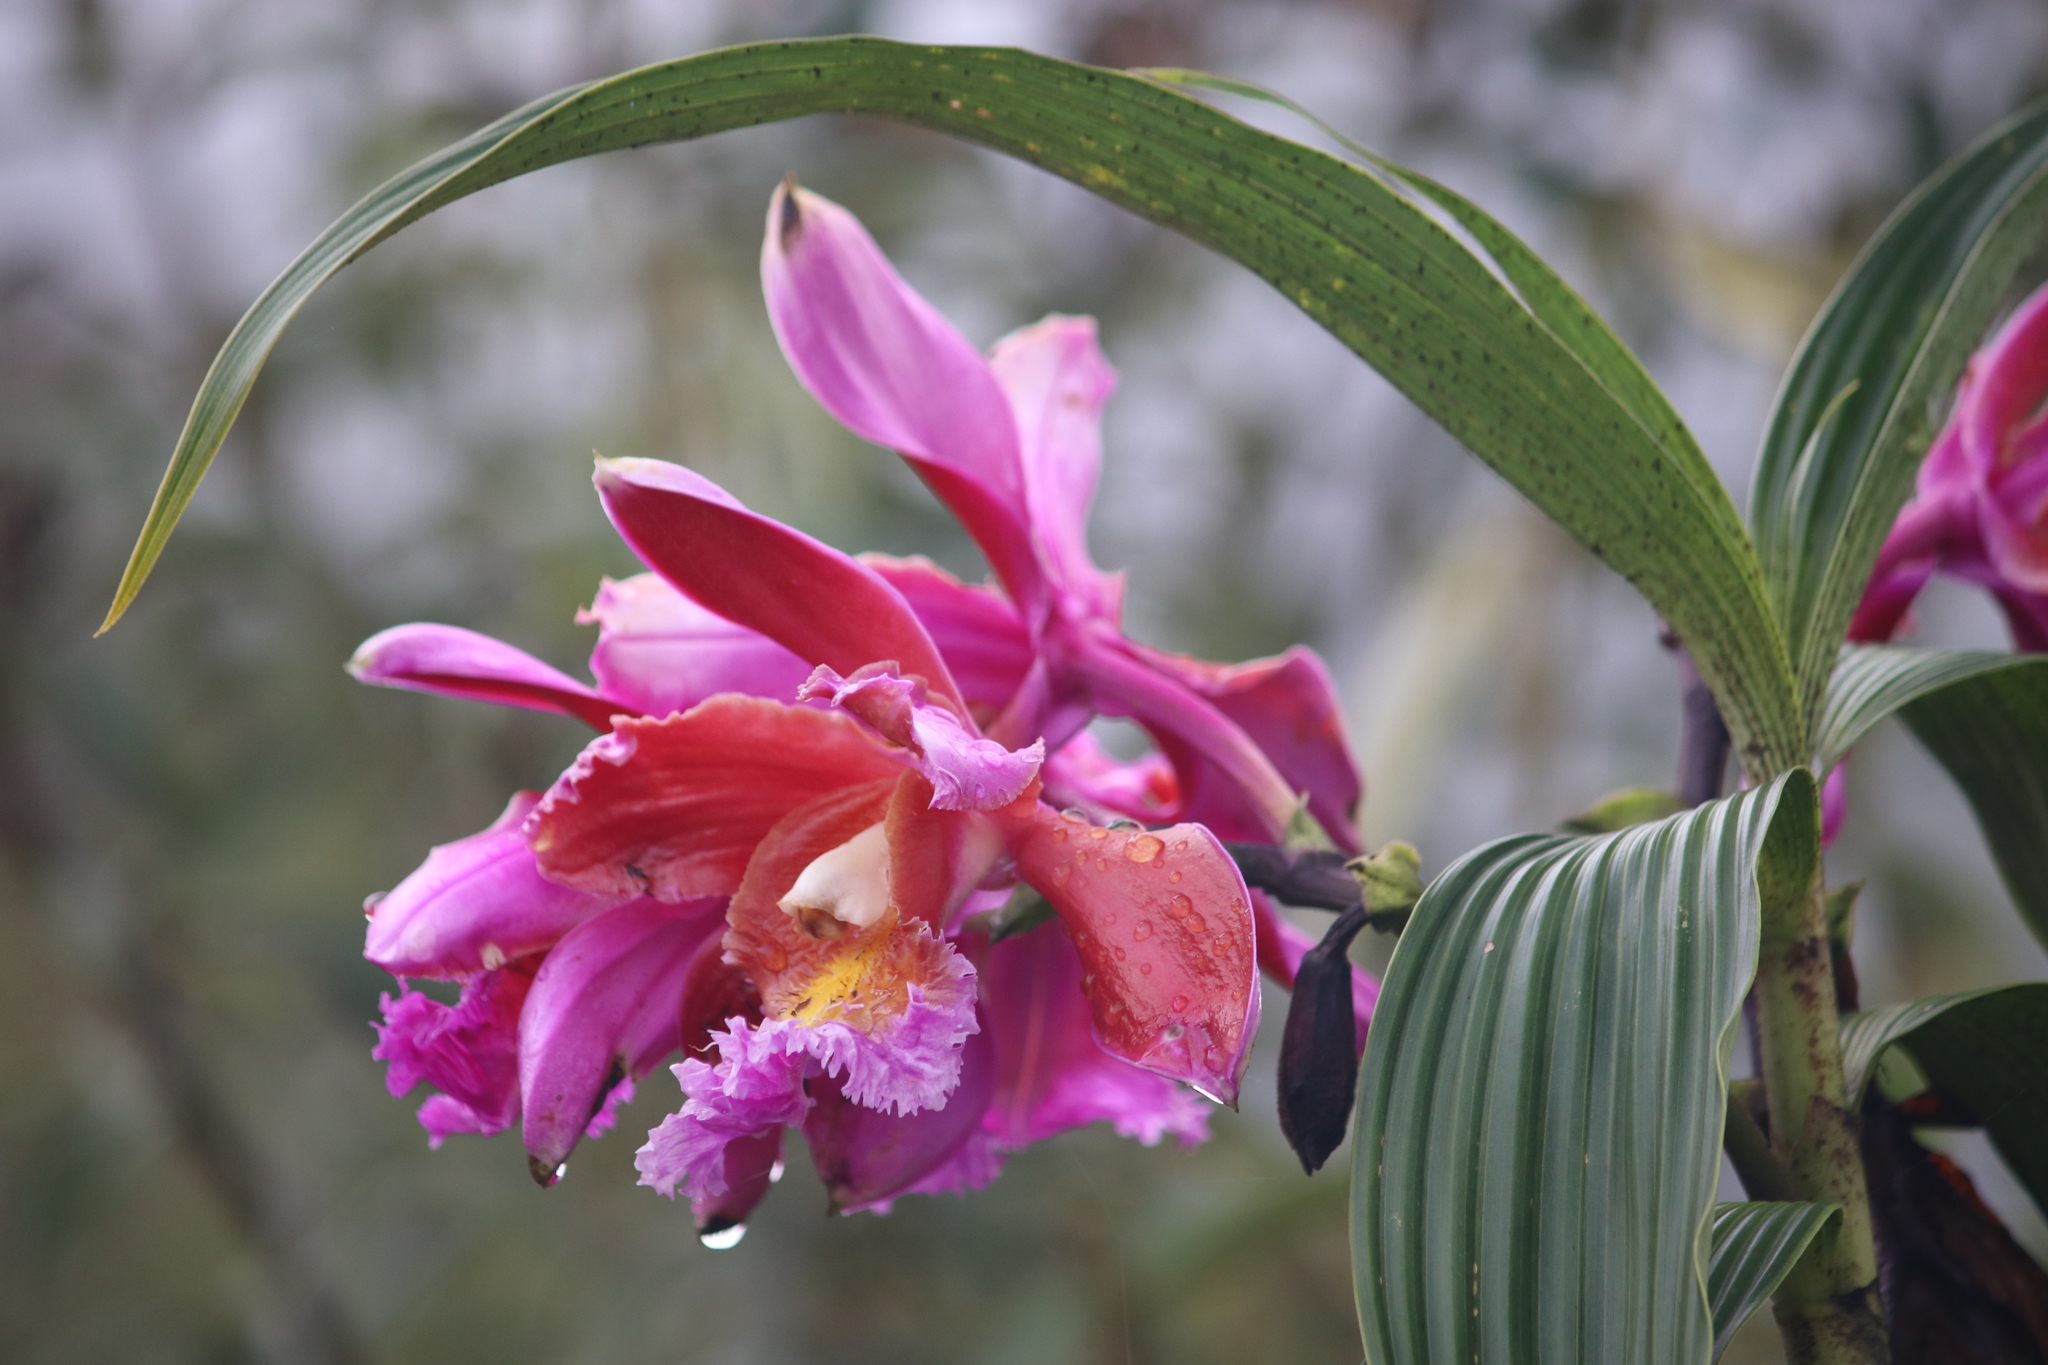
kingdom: Plantae
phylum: Tracheophyta
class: Liliopsida
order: Asparagales
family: Orchidaceae
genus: Sobralia
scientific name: Sobralia dichotoma
